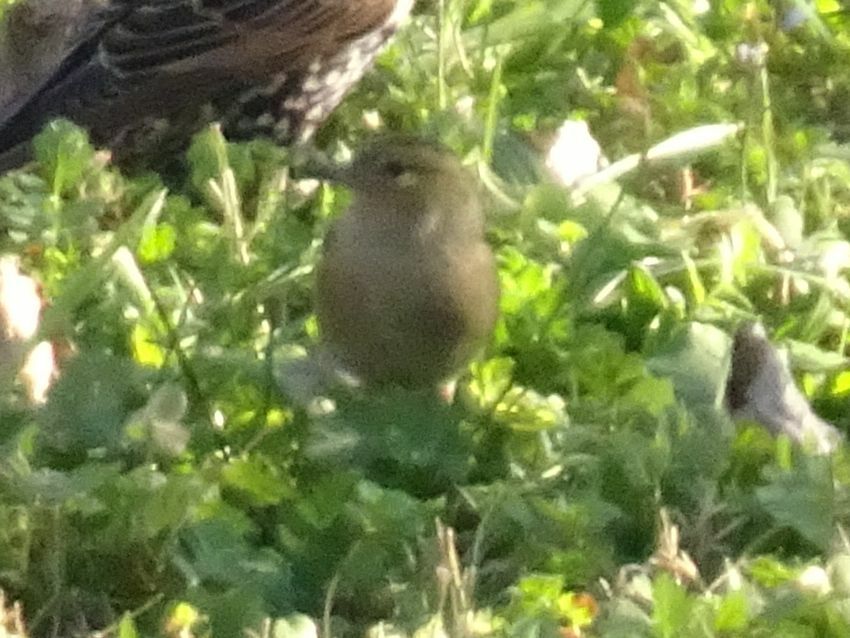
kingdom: Animalia
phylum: Chordata
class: Aves
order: Passeriformes
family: Fringillidae
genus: Fringilla
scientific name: Fringilla coelebs
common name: Common chaffinch
